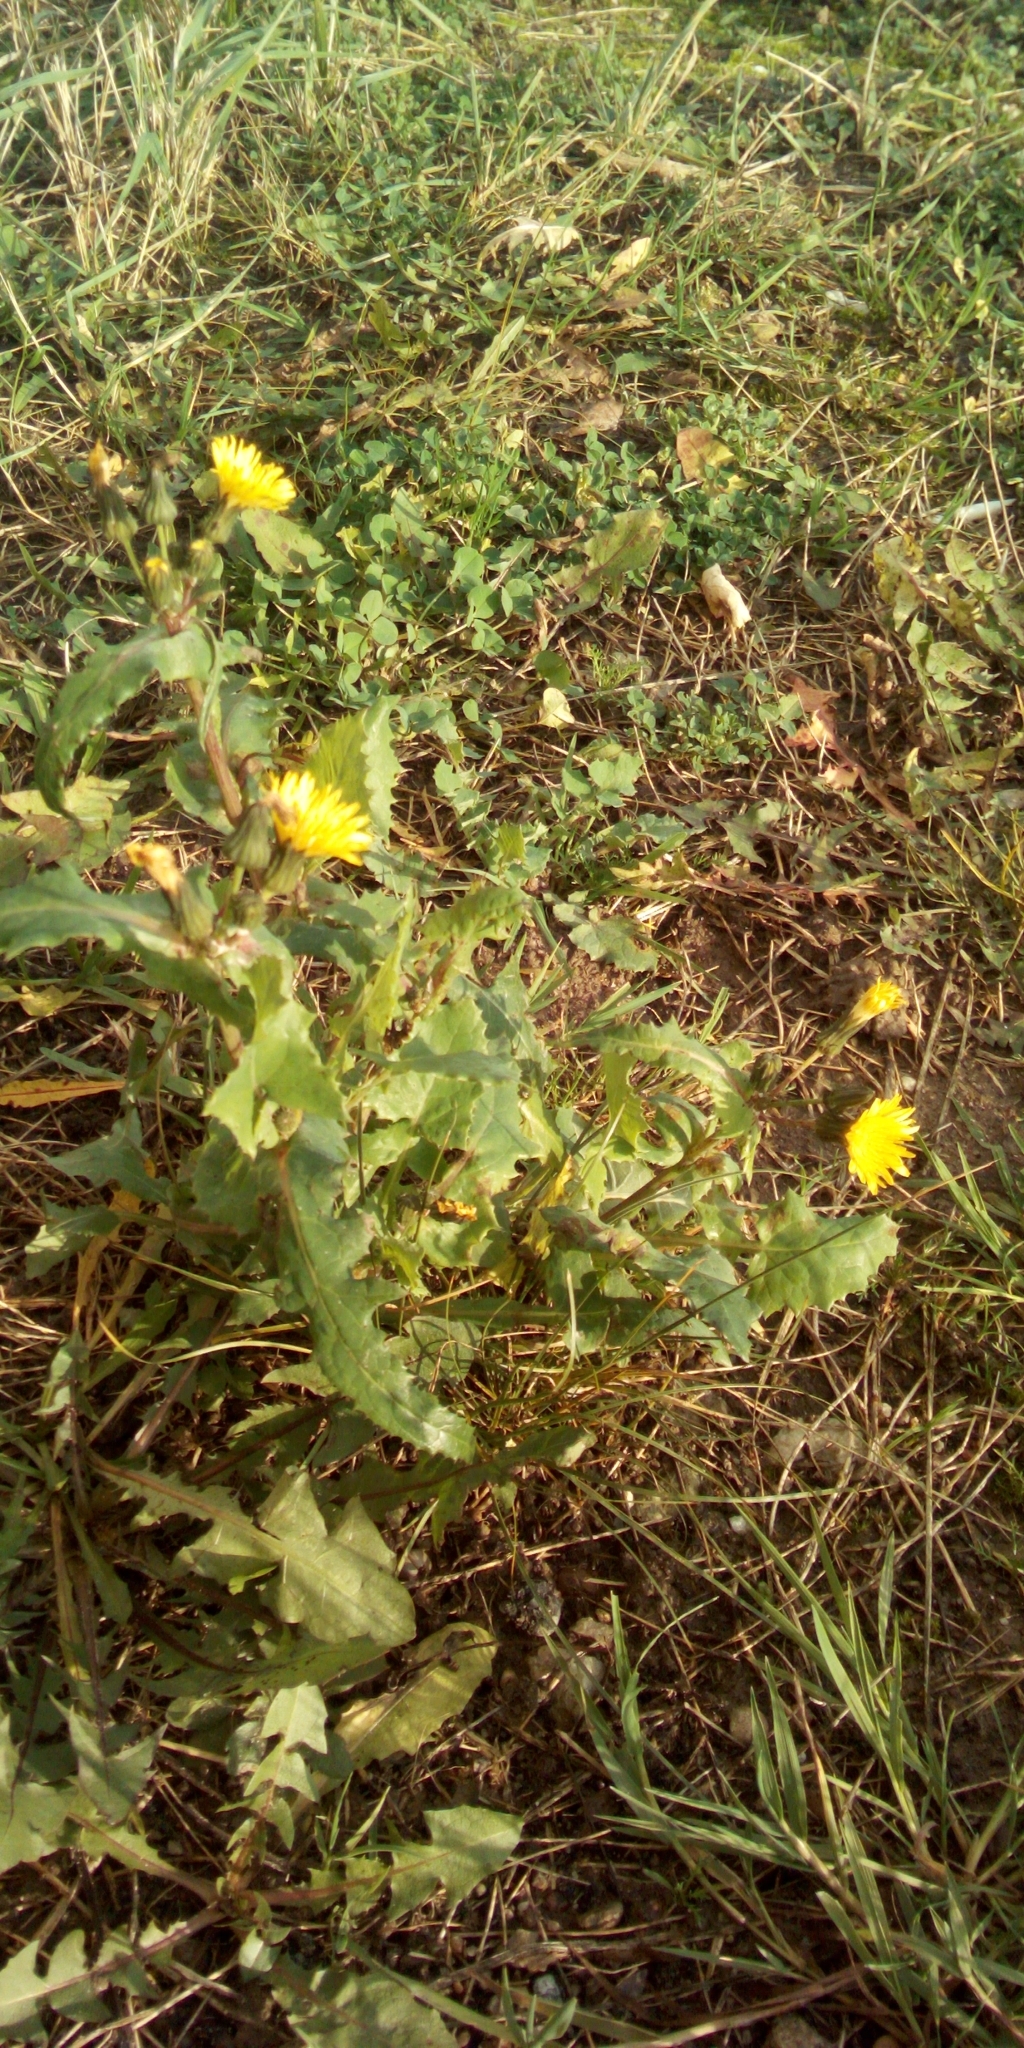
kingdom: Plantae
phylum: Tracheophyta
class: Magnoliopsida
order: Asterales
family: Asteraceae
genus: Sonchus
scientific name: Sonchus oleraceus
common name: Common sowthistle
